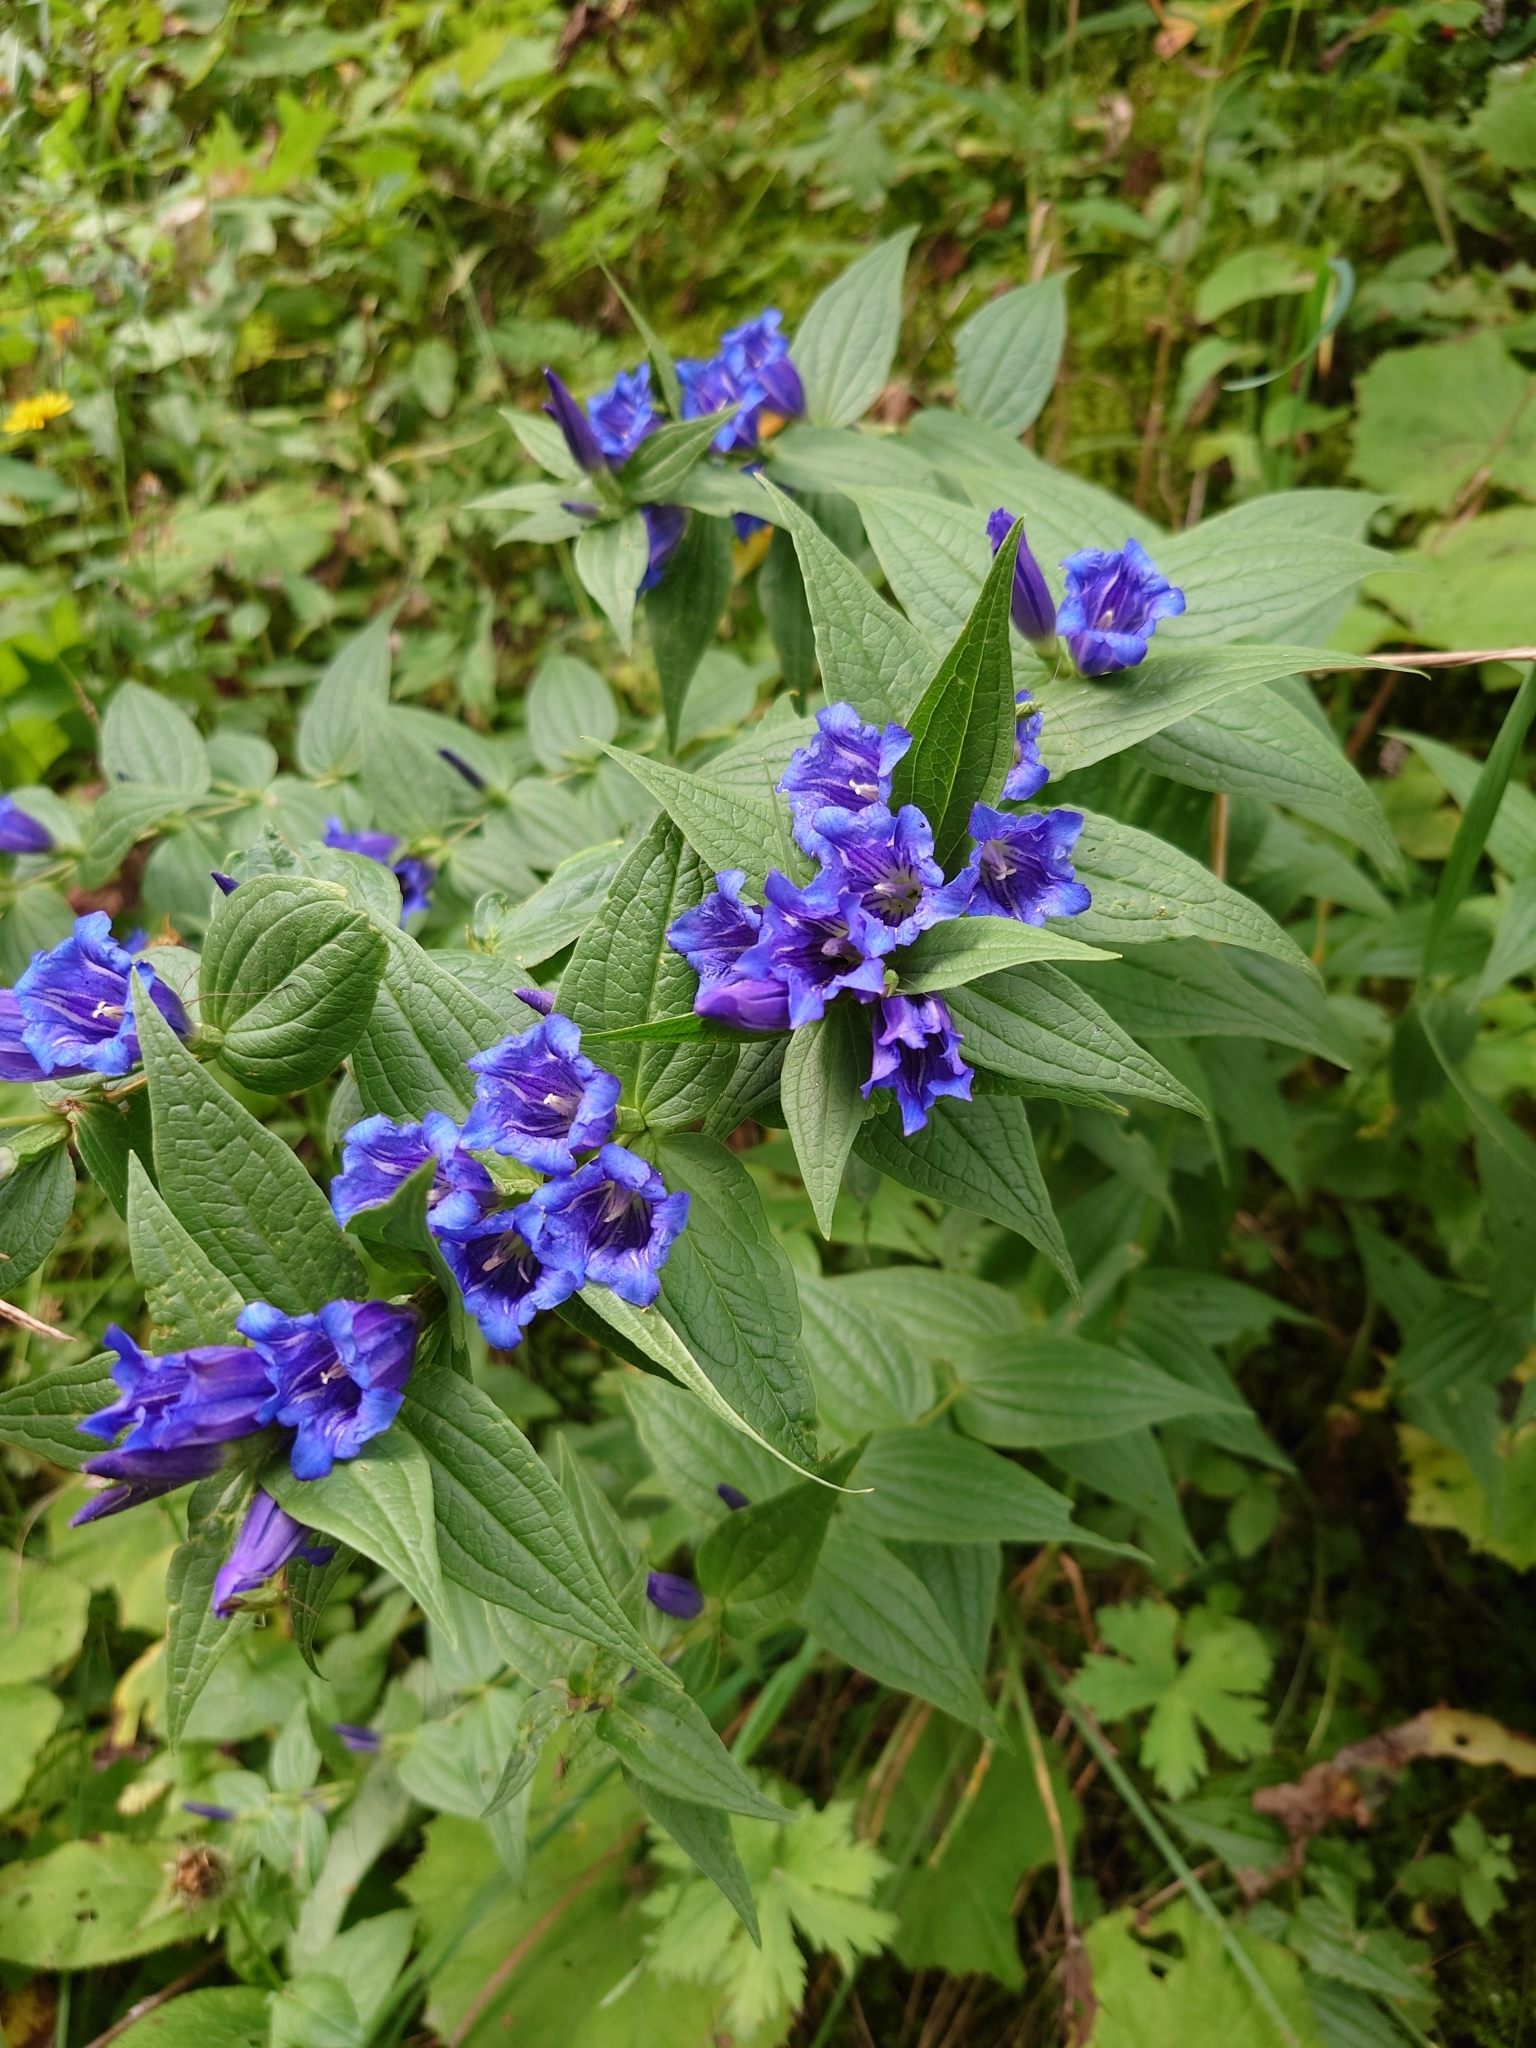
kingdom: Plantae
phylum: Tracheophyta
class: Magnoliopsida
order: Gentianales
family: Gentianaceae
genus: Gentiana
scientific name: Gentiana asclepiadea
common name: Willow gentian
